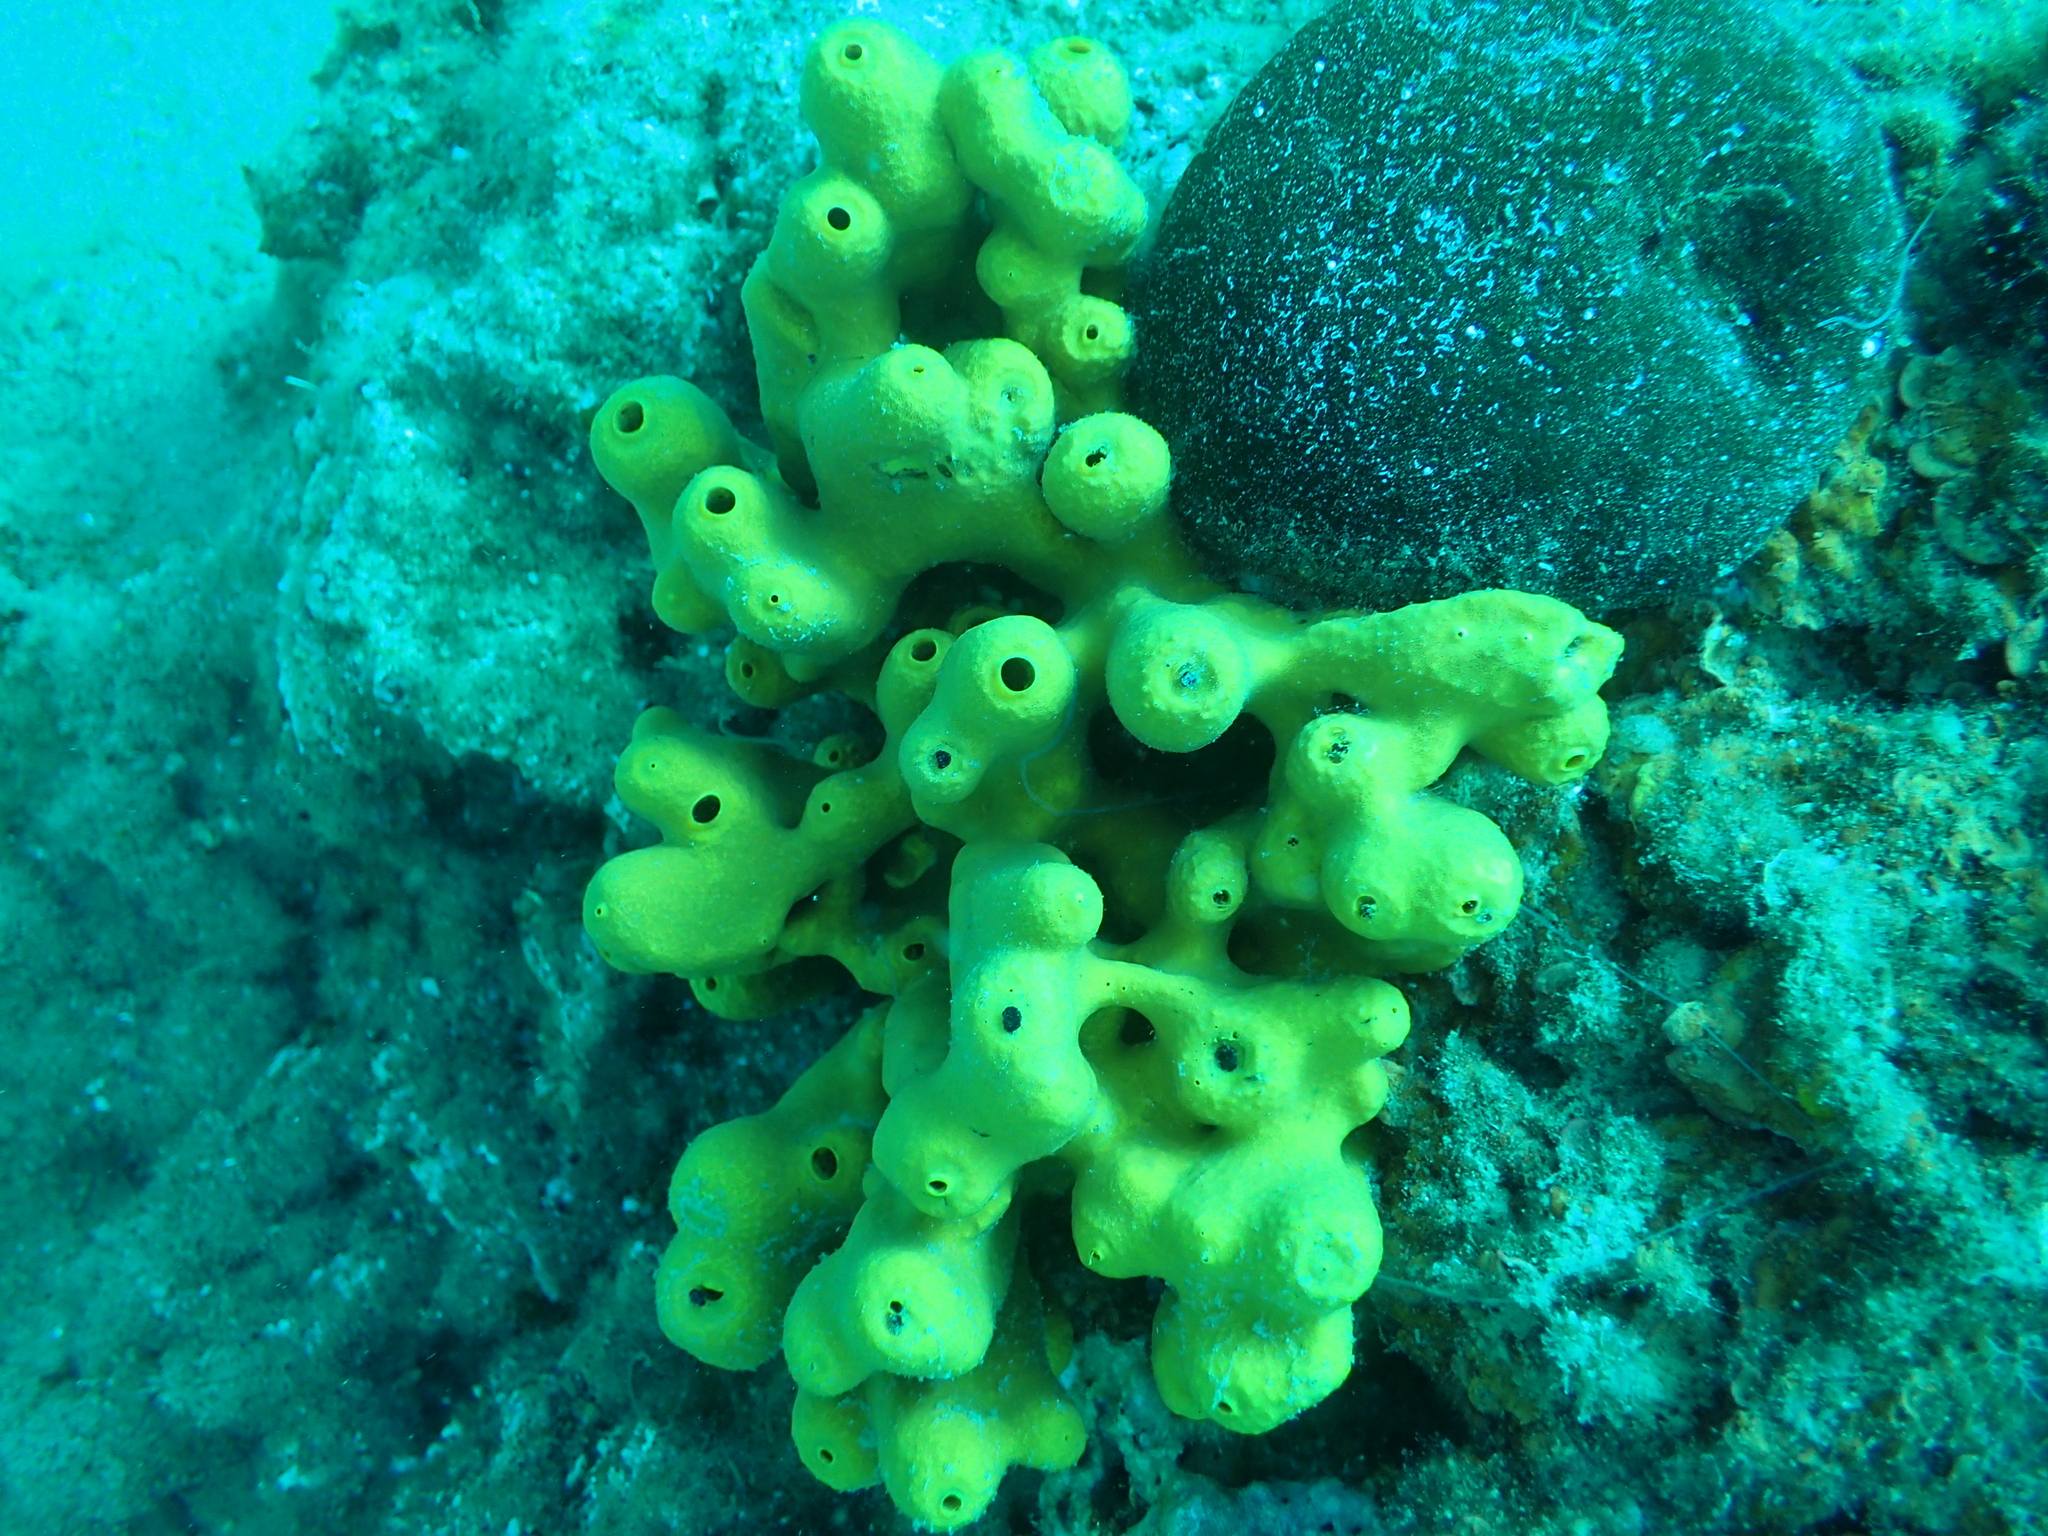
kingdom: Animalia
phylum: Porifera
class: Demospongiae
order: Verongiida
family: Aplysinidae
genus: Aplysina
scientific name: Aplysina aerophoba
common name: Aureate sponge
